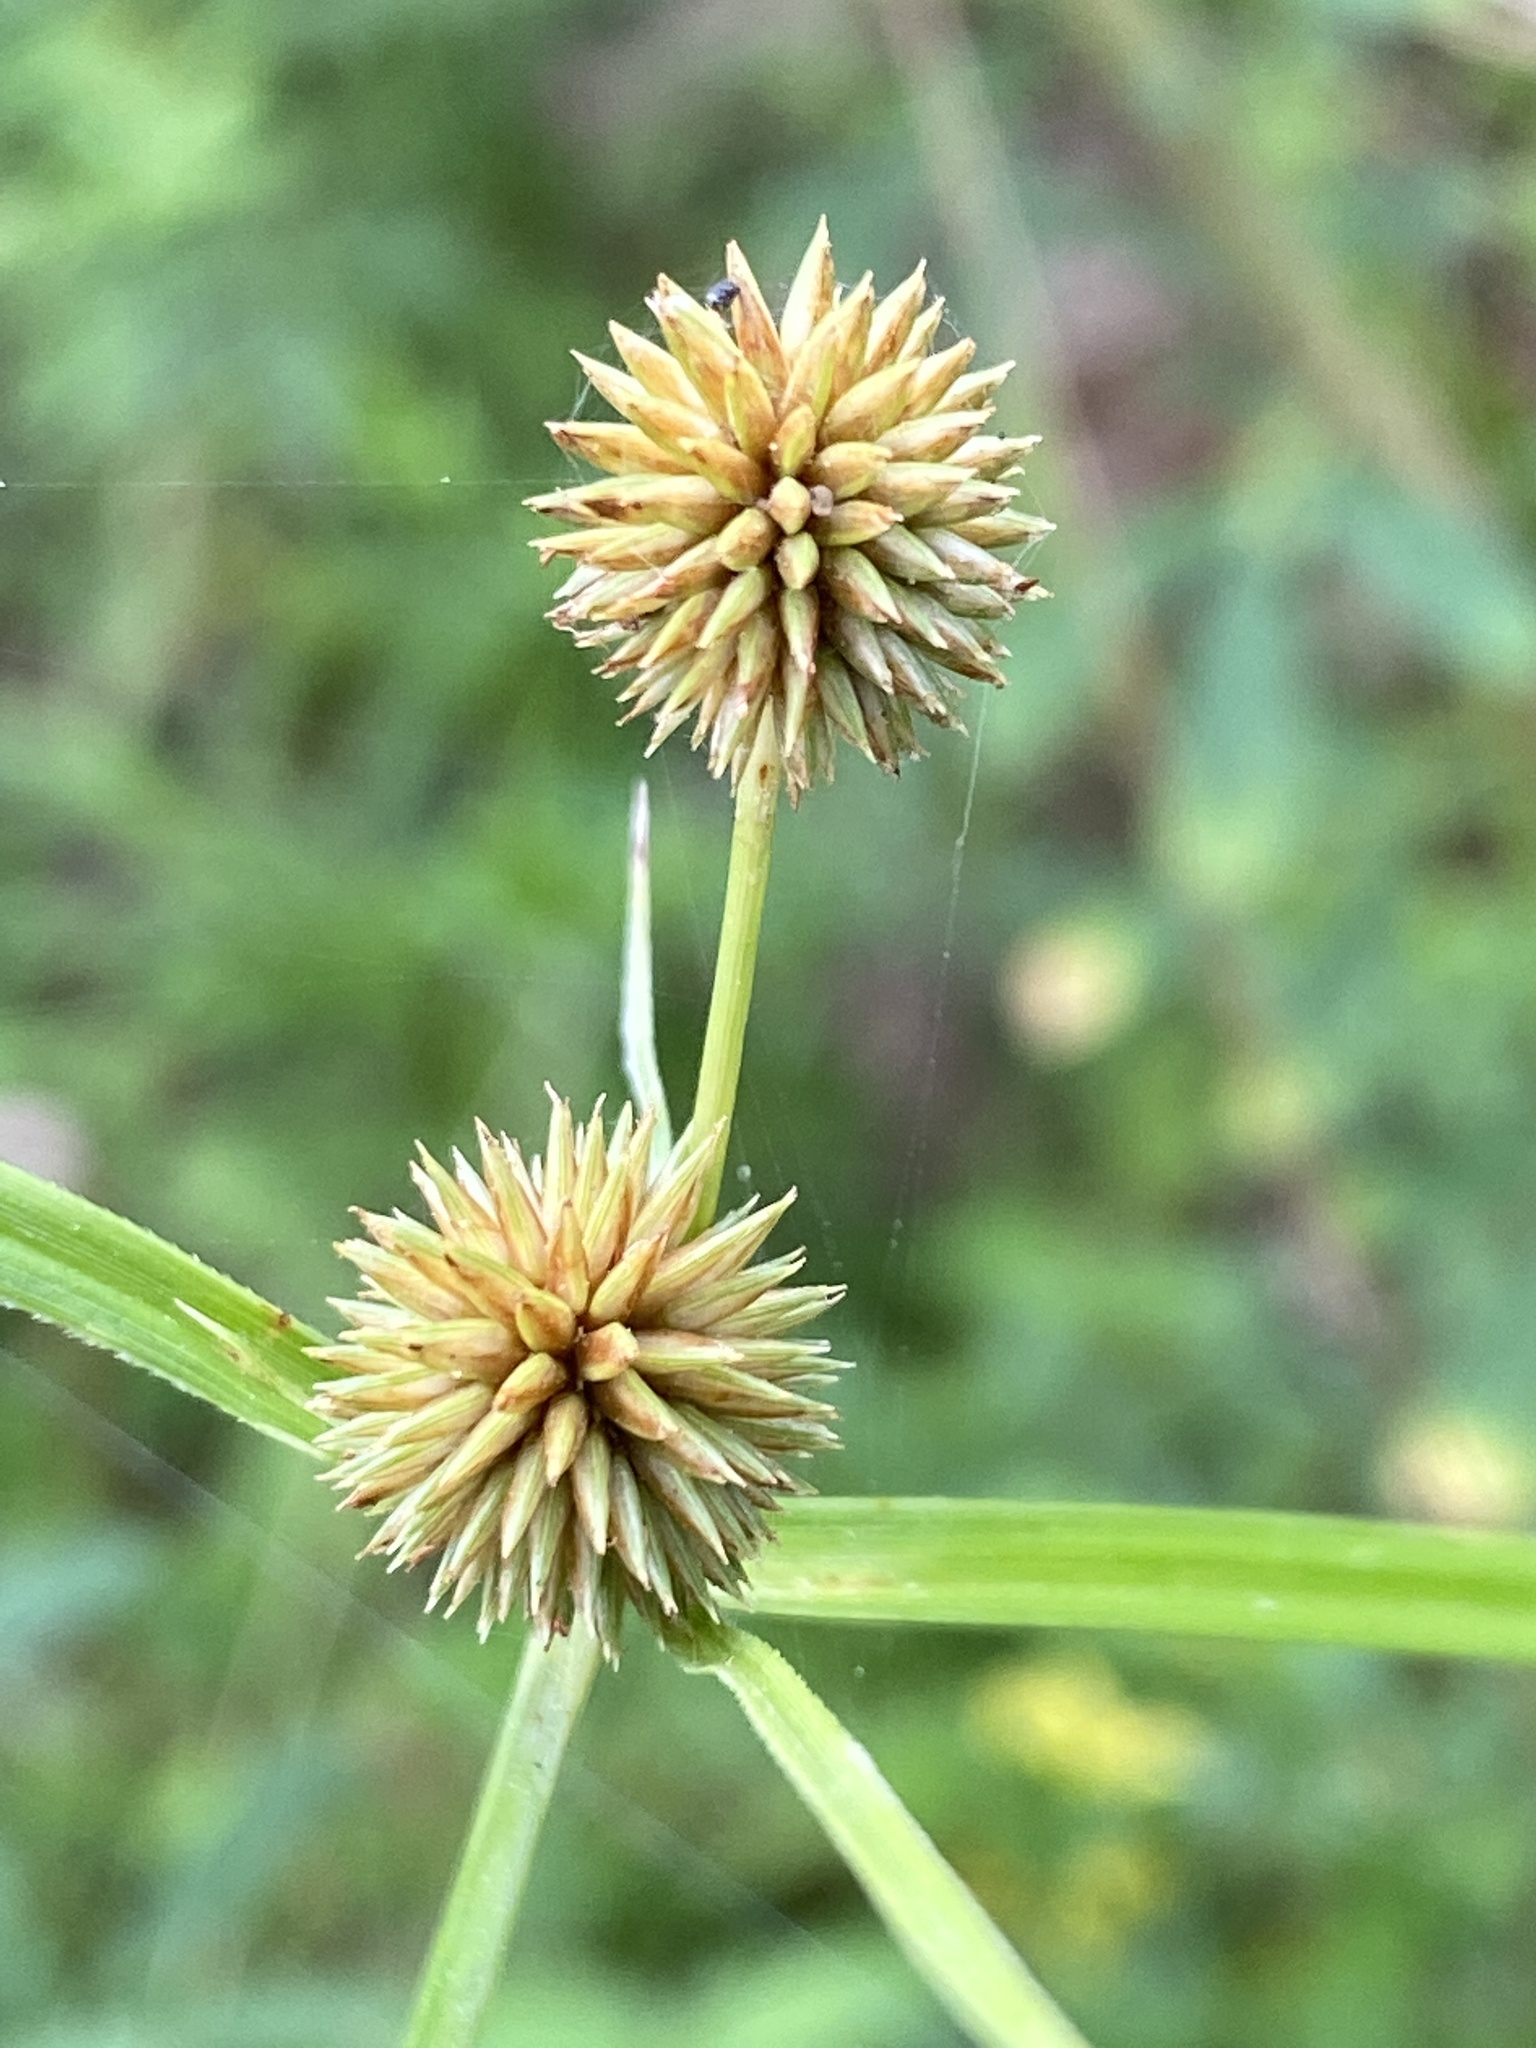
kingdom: Plantae
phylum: Tracheophyta
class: Liliopsida
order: Poales
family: Cyperaceae
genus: Cyperus
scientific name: Cyperus echinatus
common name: Teasel sedge
